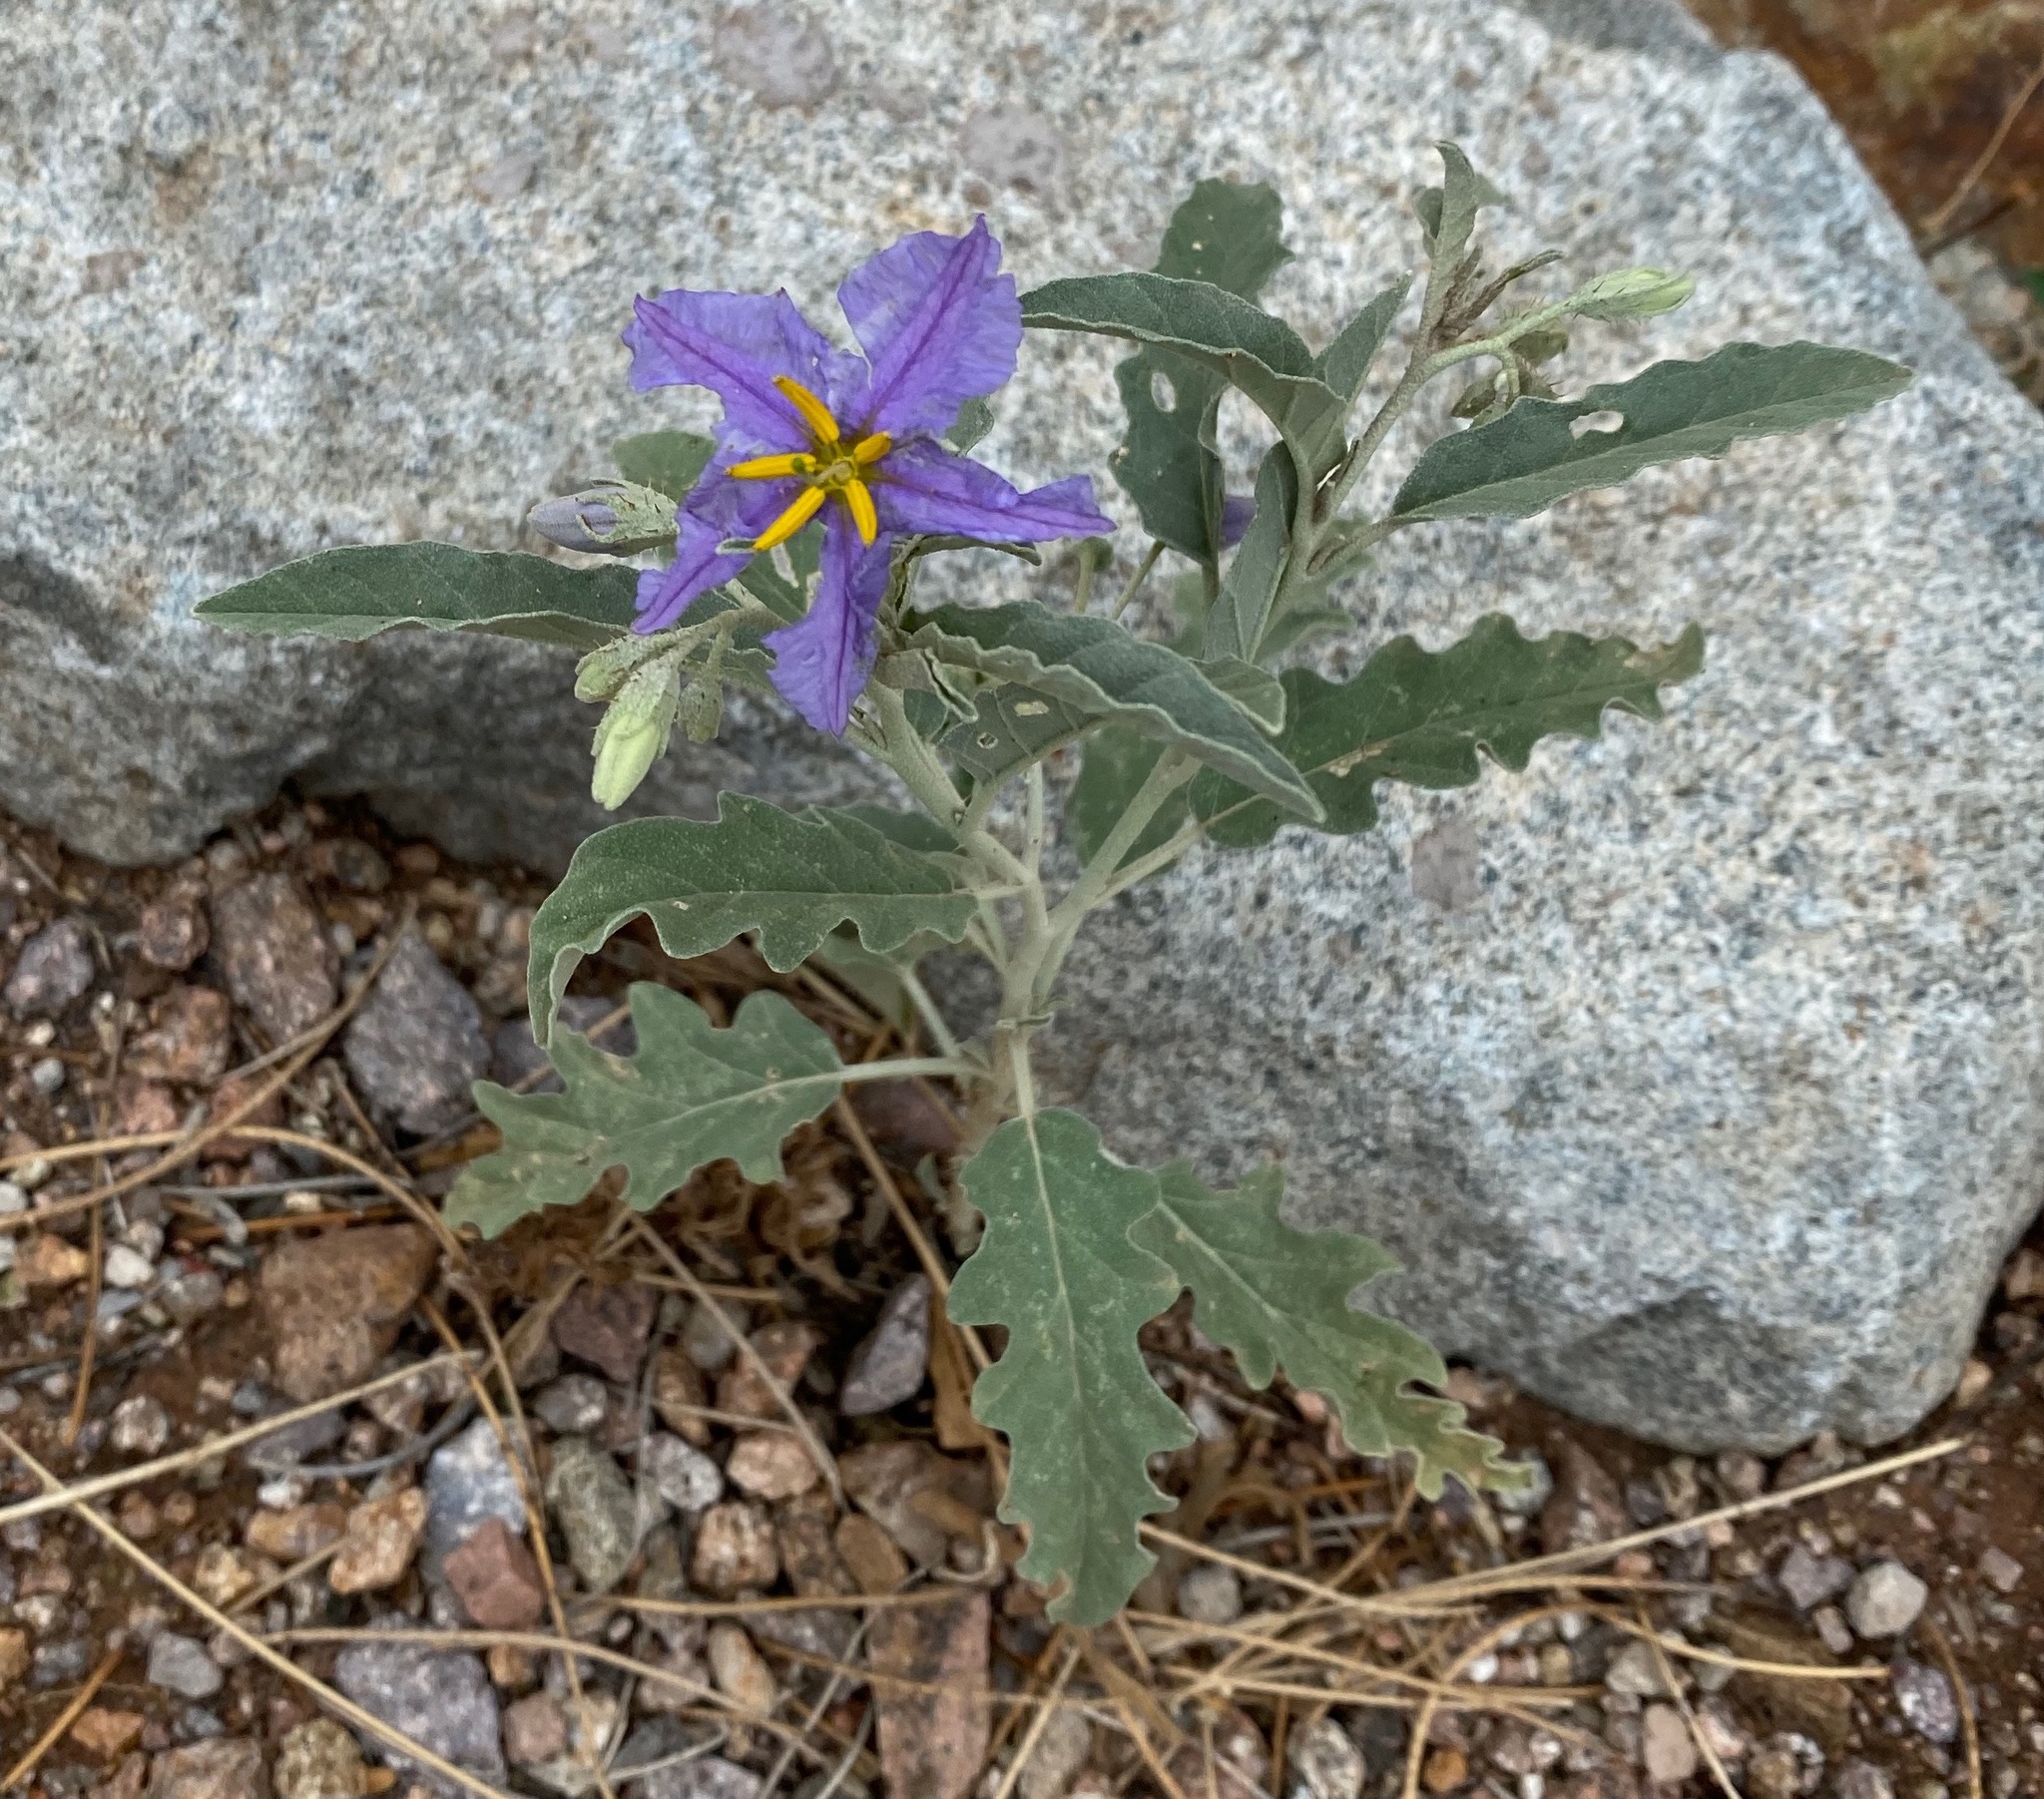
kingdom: Plantae
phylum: Tracheophyta
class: Magnoliopsida
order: Solanales
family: Solanaceae
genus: Solanum
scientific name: Solanum elaeagnifolium
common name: Silverleaf nightshade
